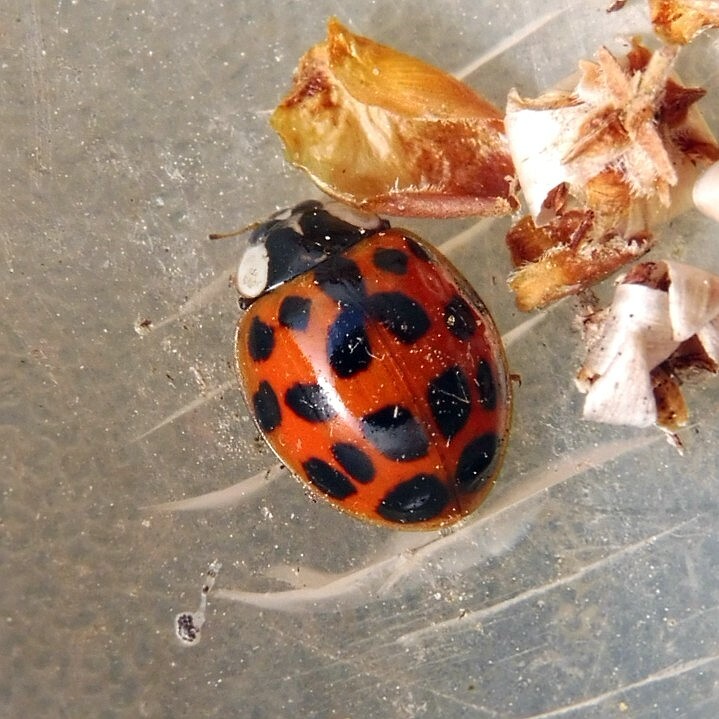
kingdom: Animalia
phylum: Arthropoda
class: Insecta
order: Coleoptera
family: Coccinellidae
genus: Harmonia
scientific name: Harmonia axyridis
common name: Harlequin ladybird
